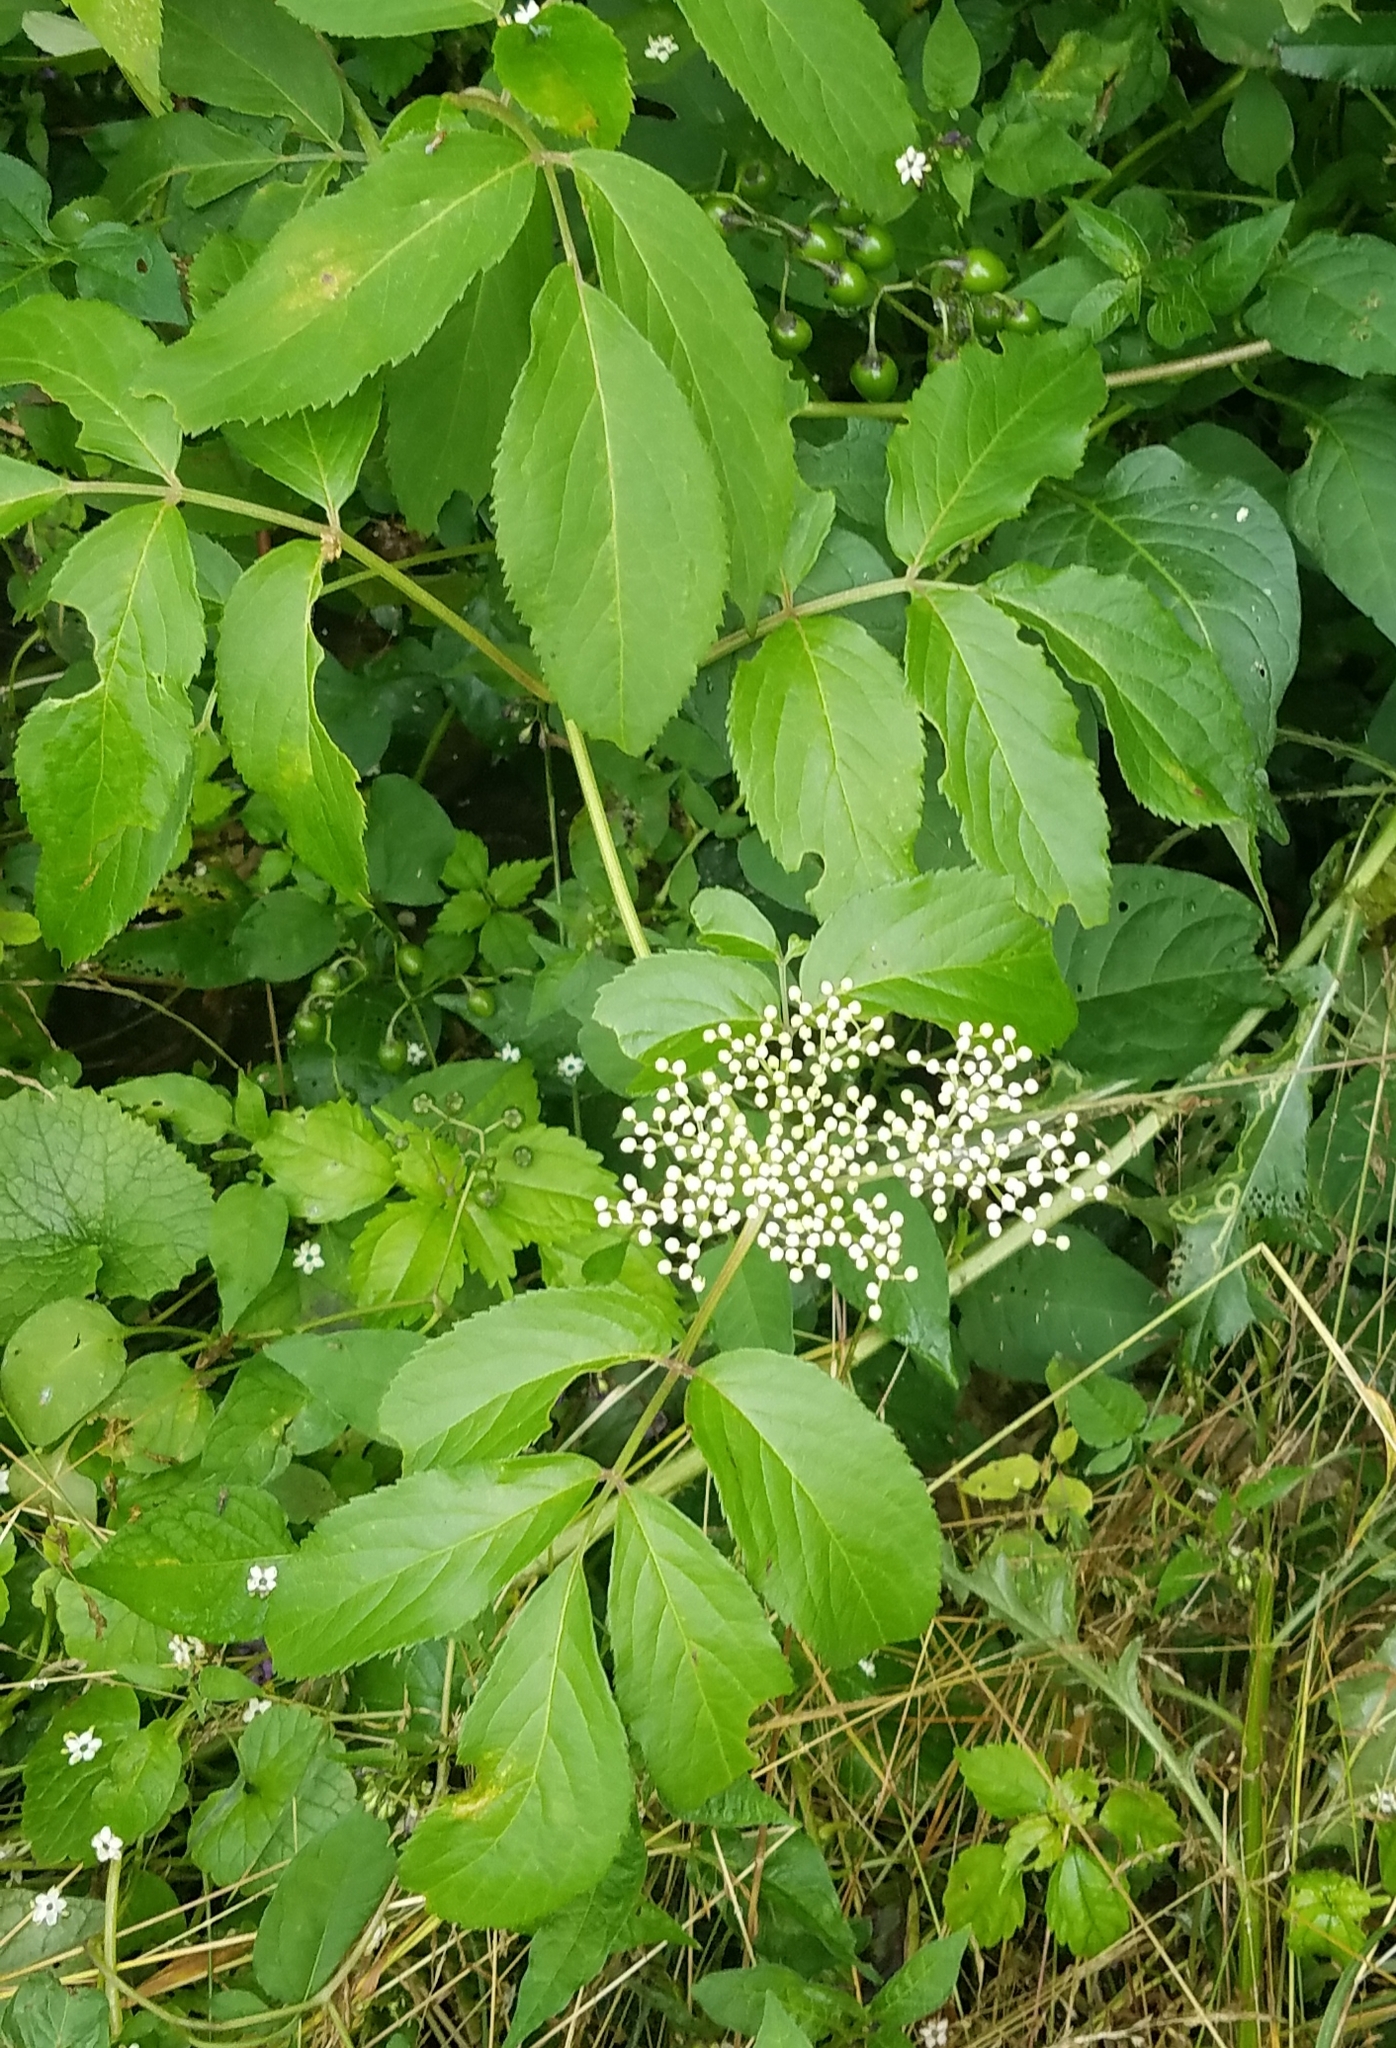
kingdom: Plantae
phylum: Tracheophyta
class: Magnoliopsida
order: Dipsacales
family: Viburnaceae
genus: Sambucus
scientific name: Sambucus canadensis
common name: American elder
